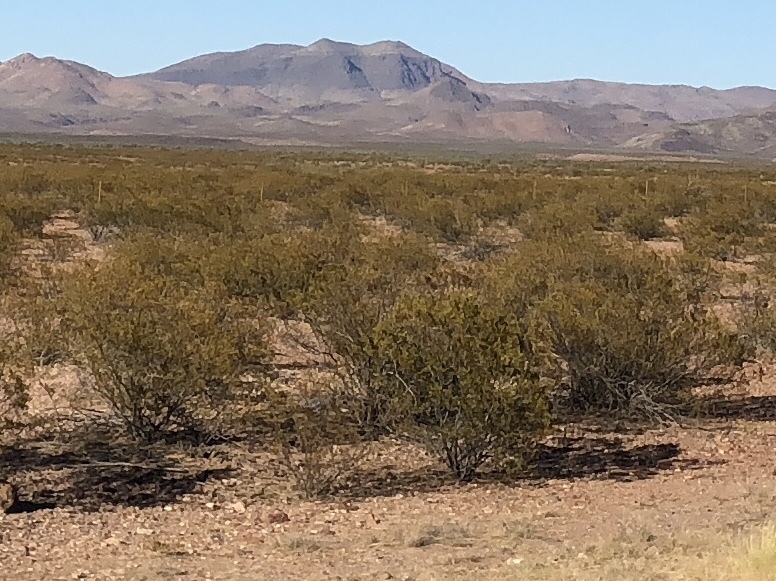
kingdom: Plantae
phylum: Tracheophyta
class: Magnoliopsida
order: Zygophyllales
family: Zygophyllaceae
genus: Larrea
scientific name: Larrea tridentata
